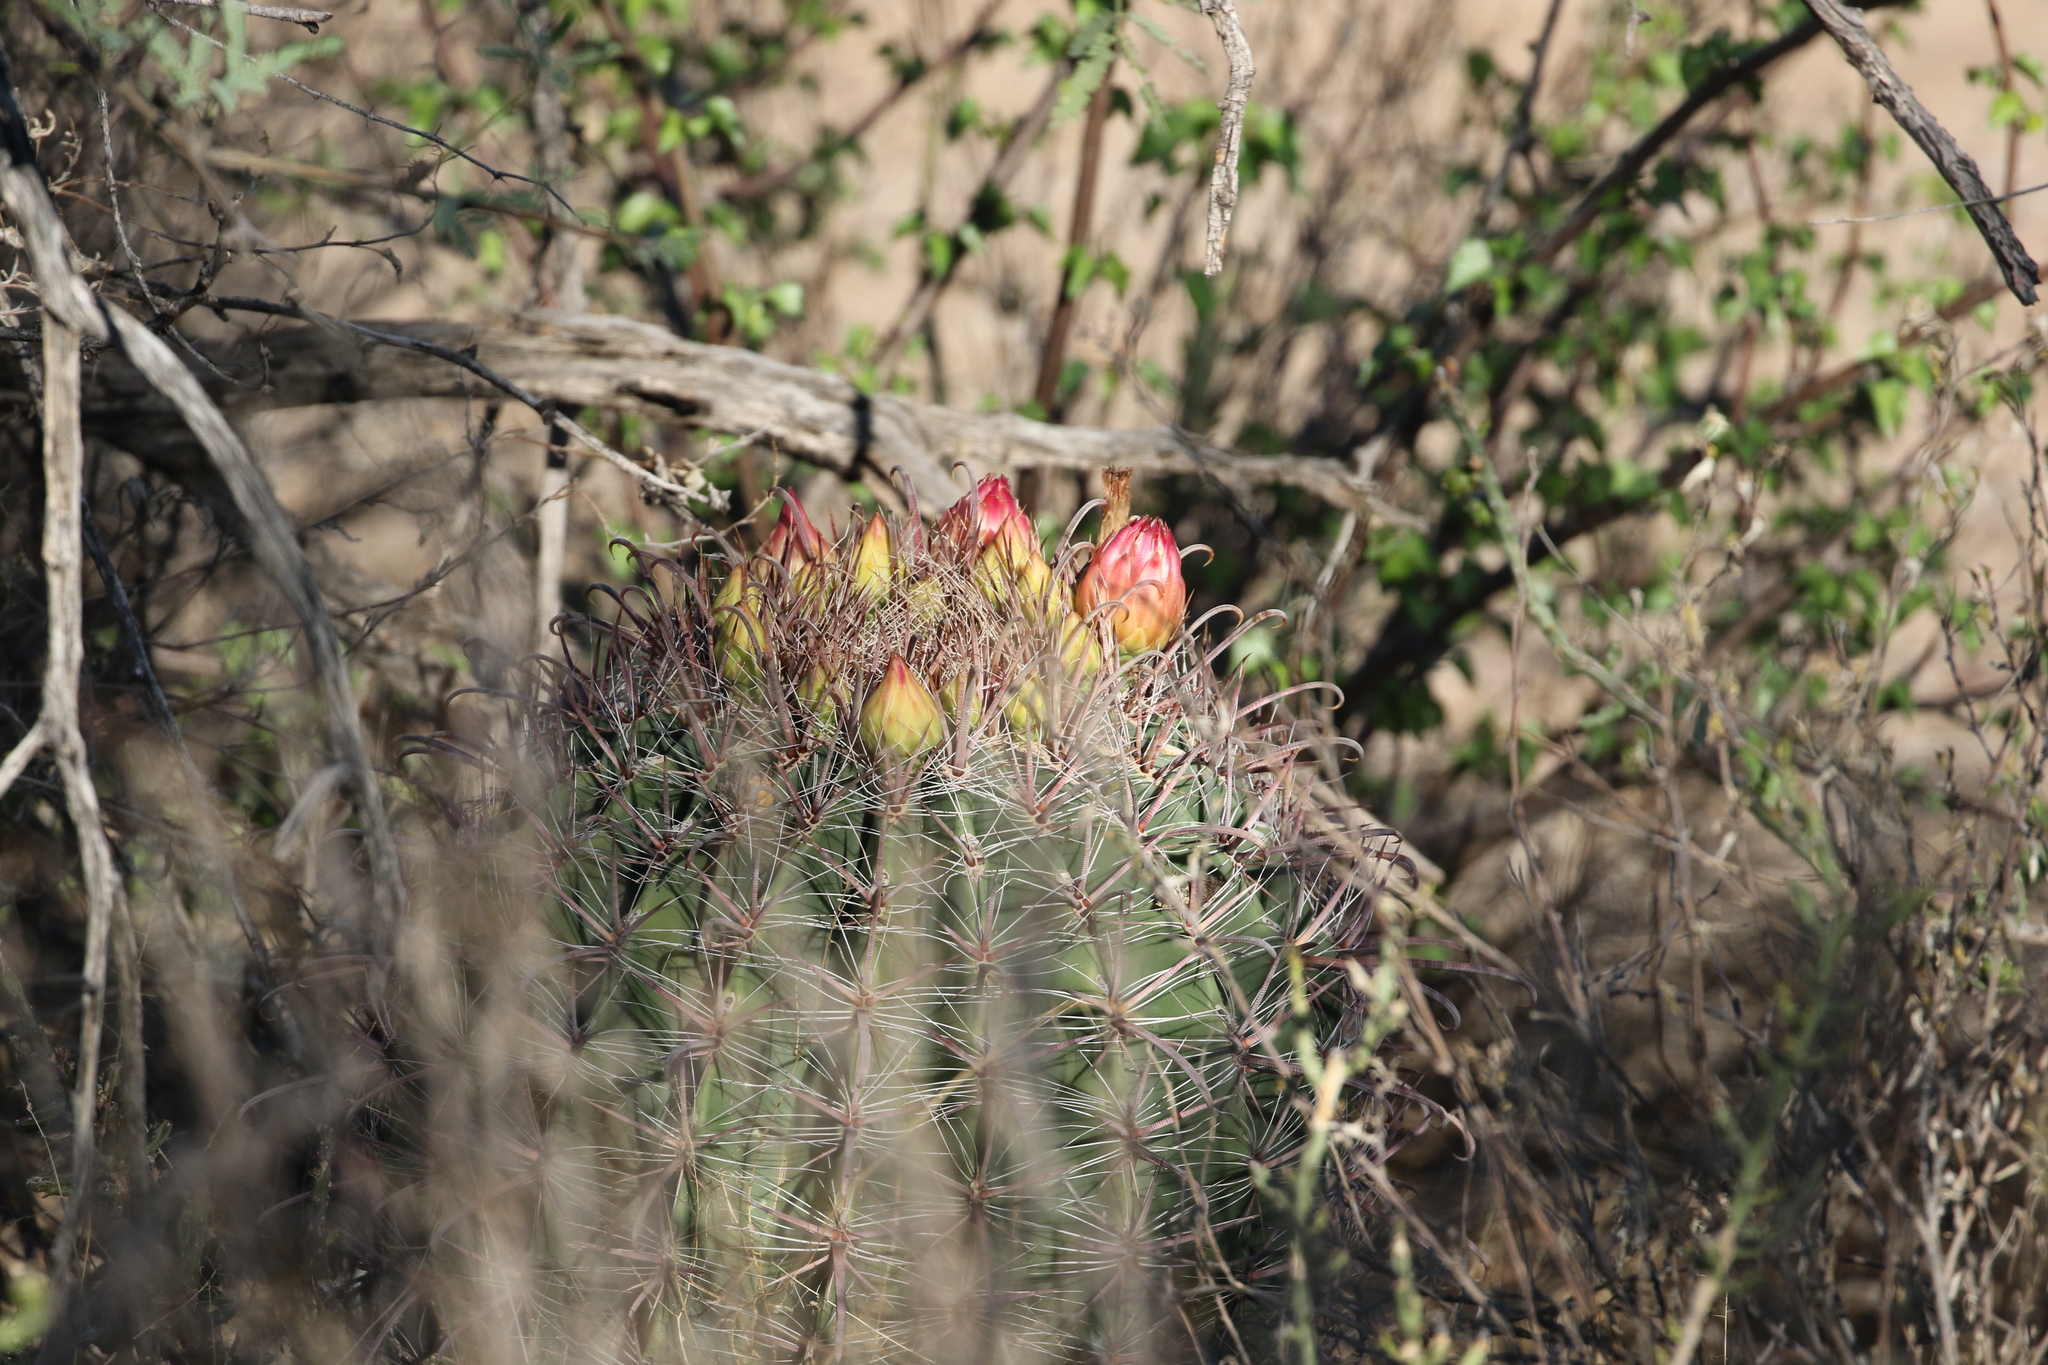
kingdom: Plantae
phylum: Tracheophyta
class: Magnoliopsida
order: Caryophyllales
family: Cactaceae
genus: Ferocactus
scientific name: Ferocactus wislizeni
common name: Candy barrel cactus
